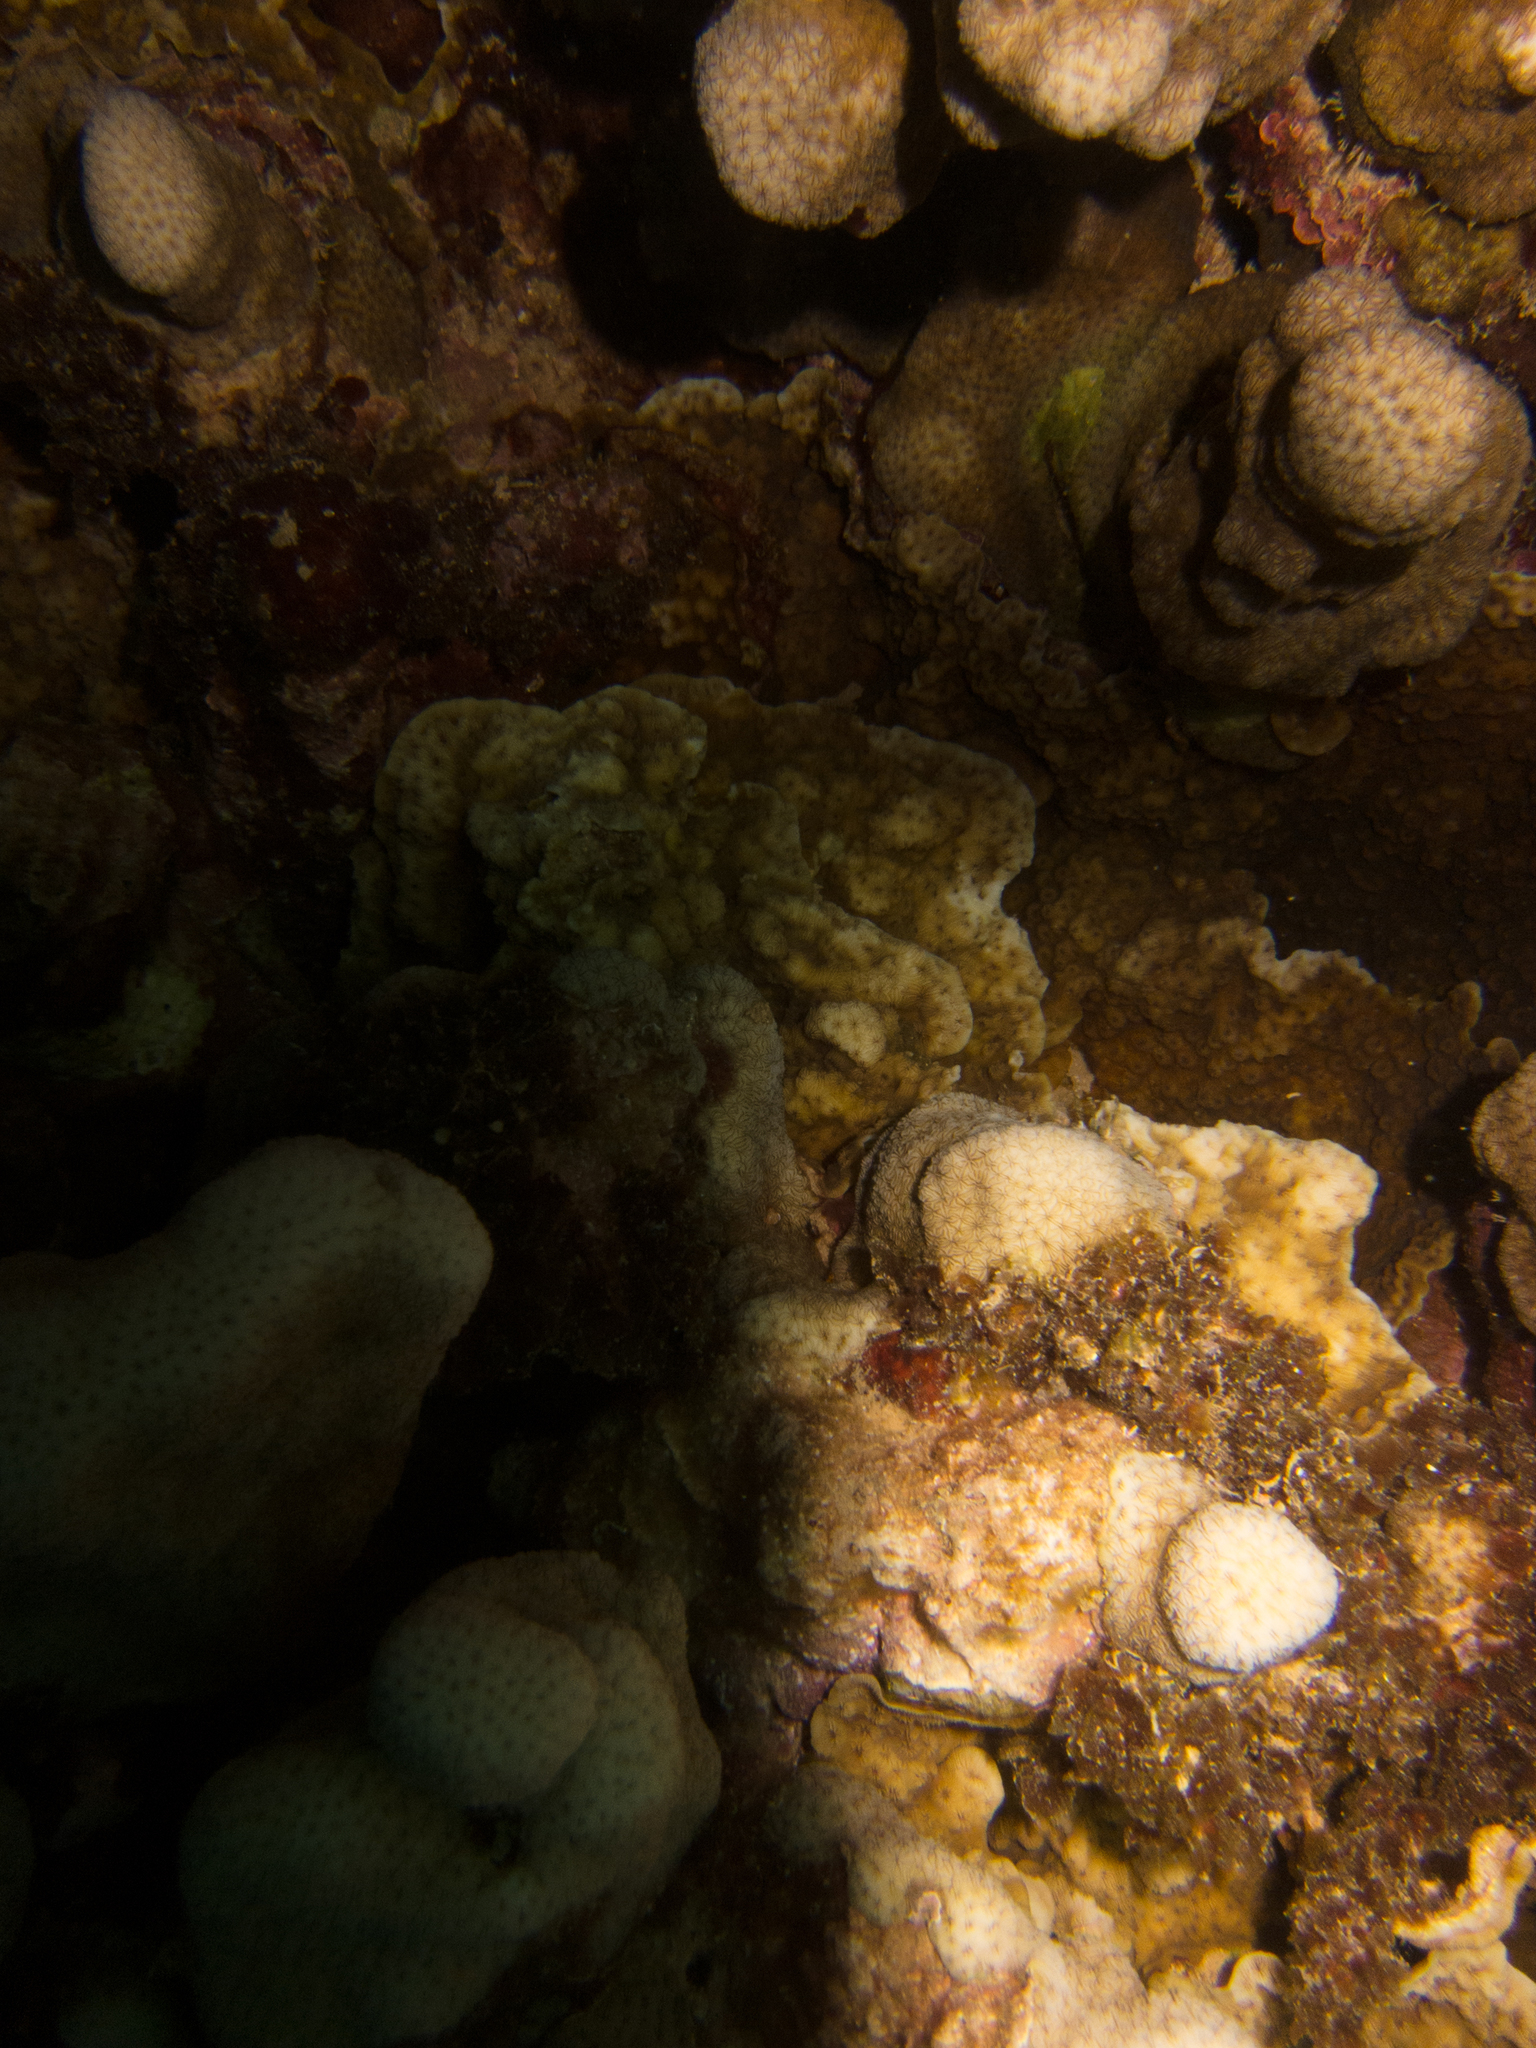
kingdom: Animalia
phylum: Cnidaria
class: Anthozoa
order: Scleractinia
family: Agariciidae
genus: Pavona
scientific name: Pavona duerdeni
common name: Leaf coral
